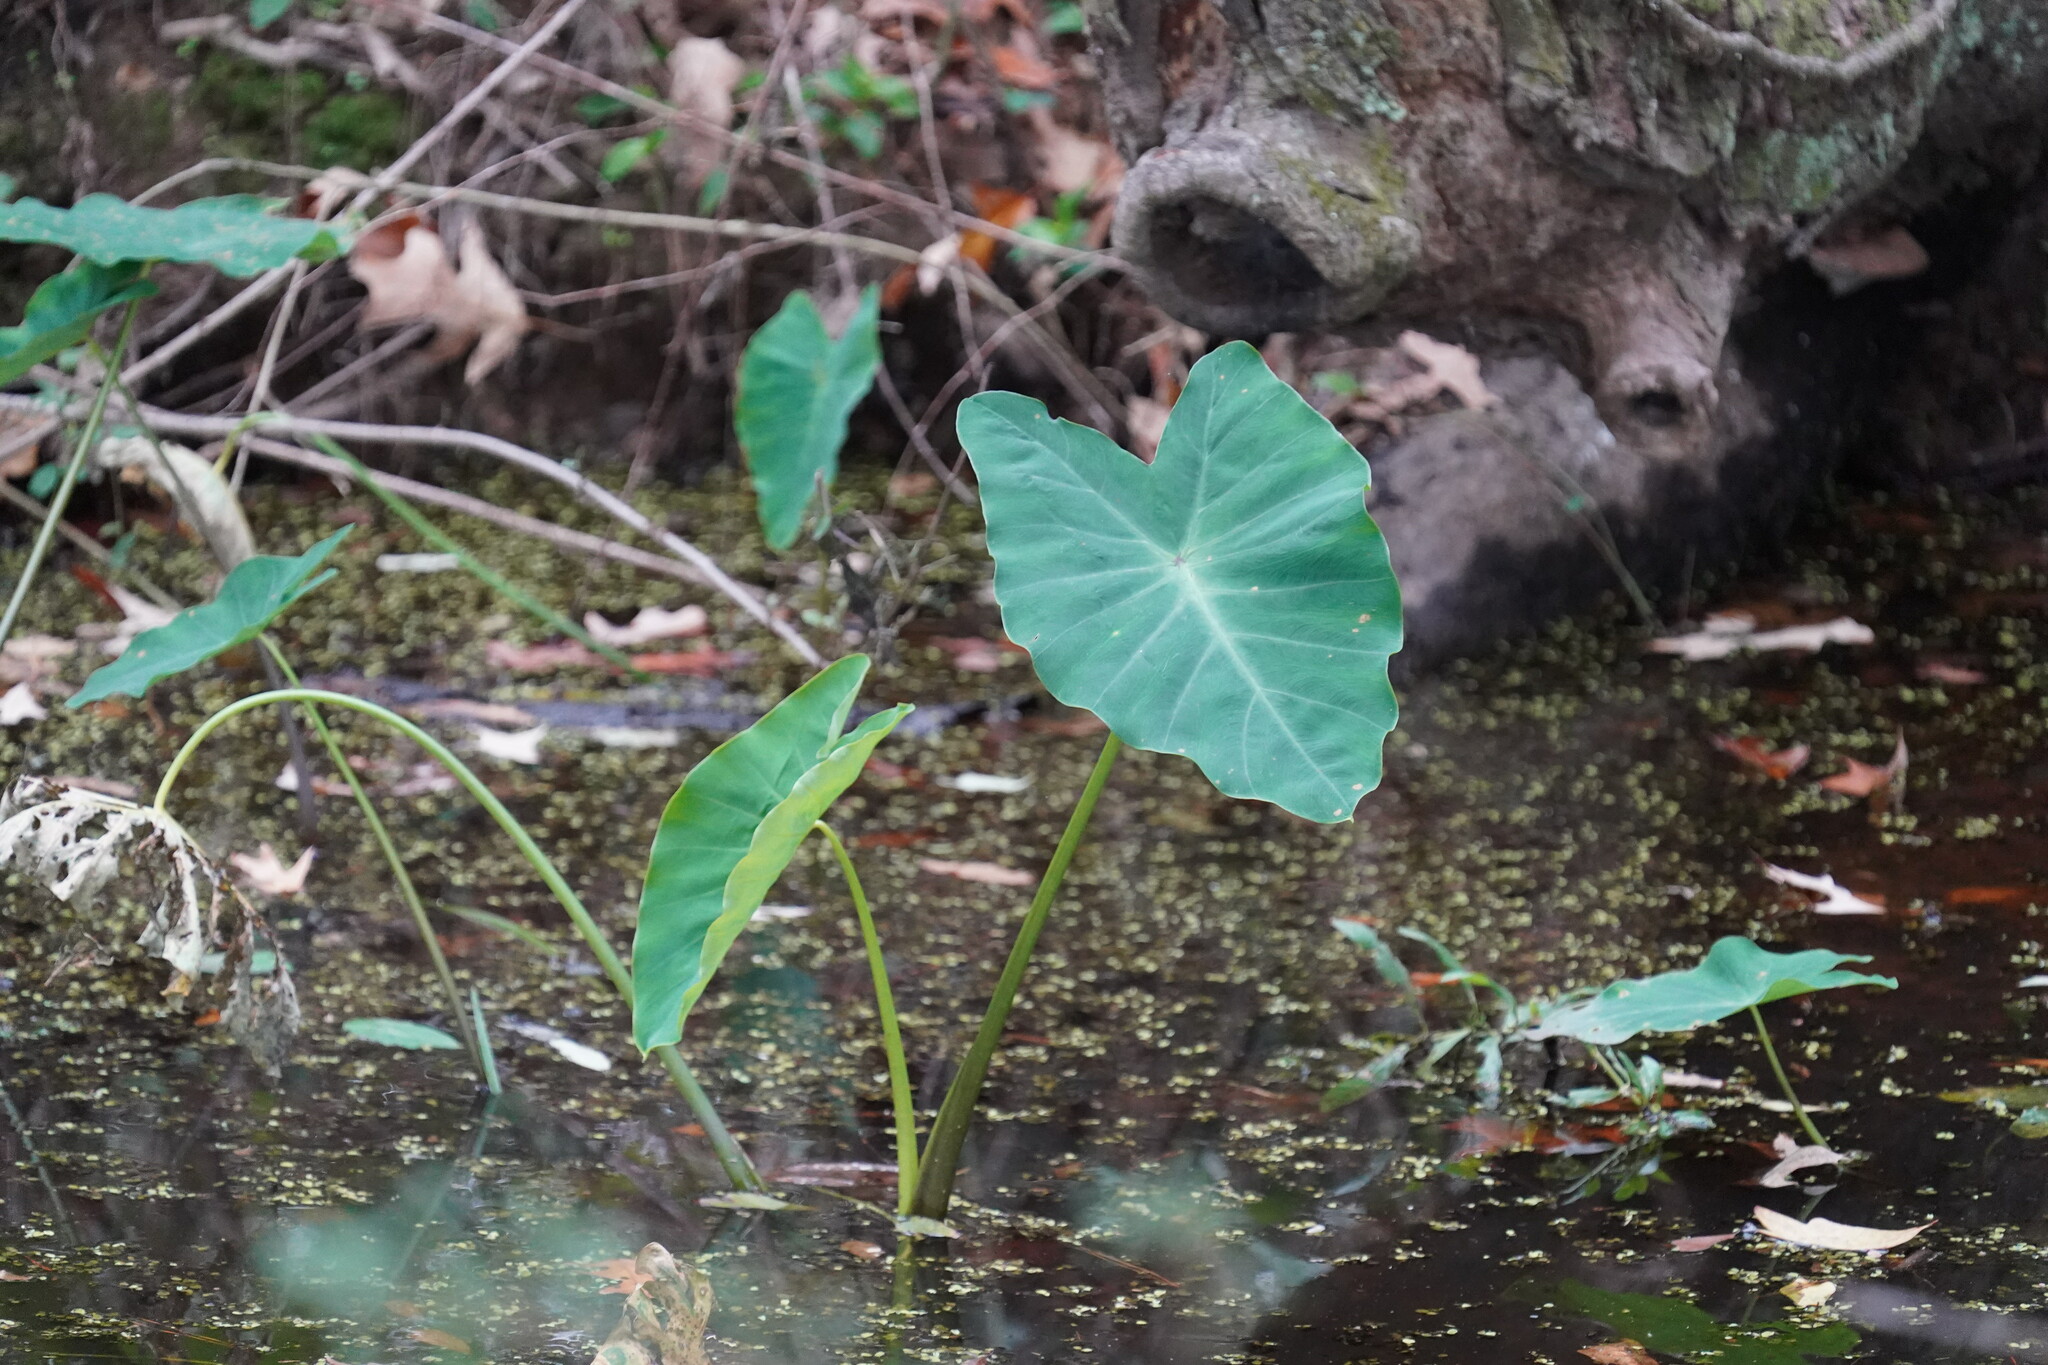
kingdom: Plantae
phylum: Tracheophyta
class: Liliopsida
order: Alismatales
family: Araceae
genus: Colocasia
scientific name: Colocasia esculenta
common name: Taro
